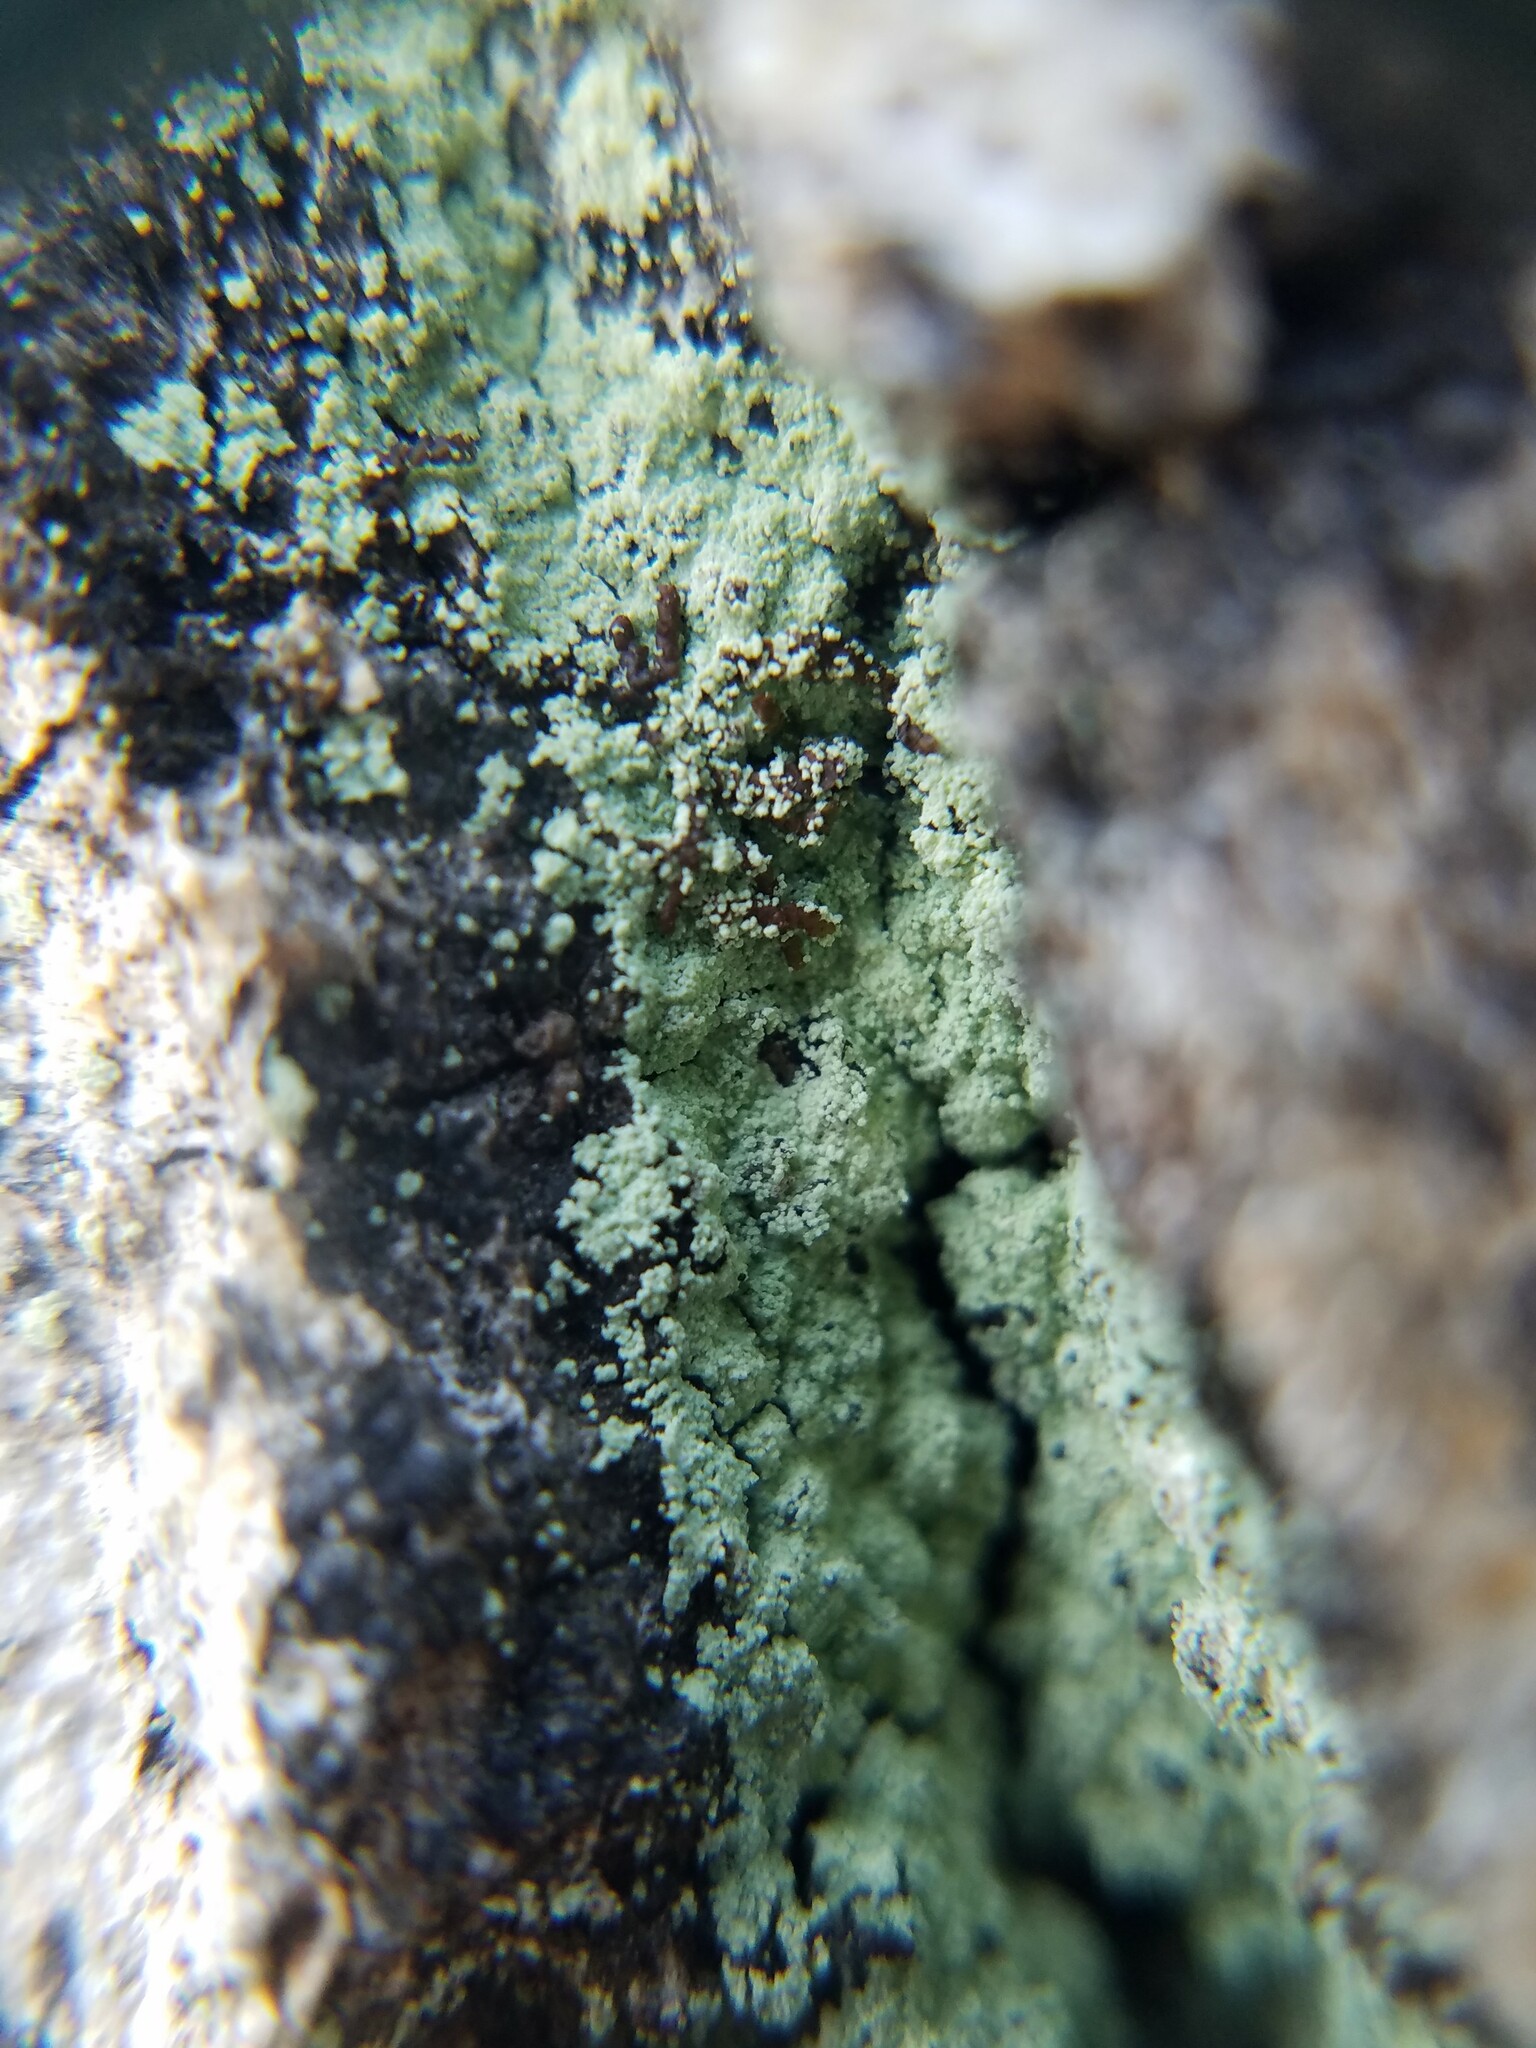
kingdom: Fungi
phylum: Ascomycota
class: Lecanoromycetes
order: Lecanorales
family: Stereocaulaceae
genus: Lepraria
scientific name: Lepraria lobificans
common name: Fluffy dust lichen
